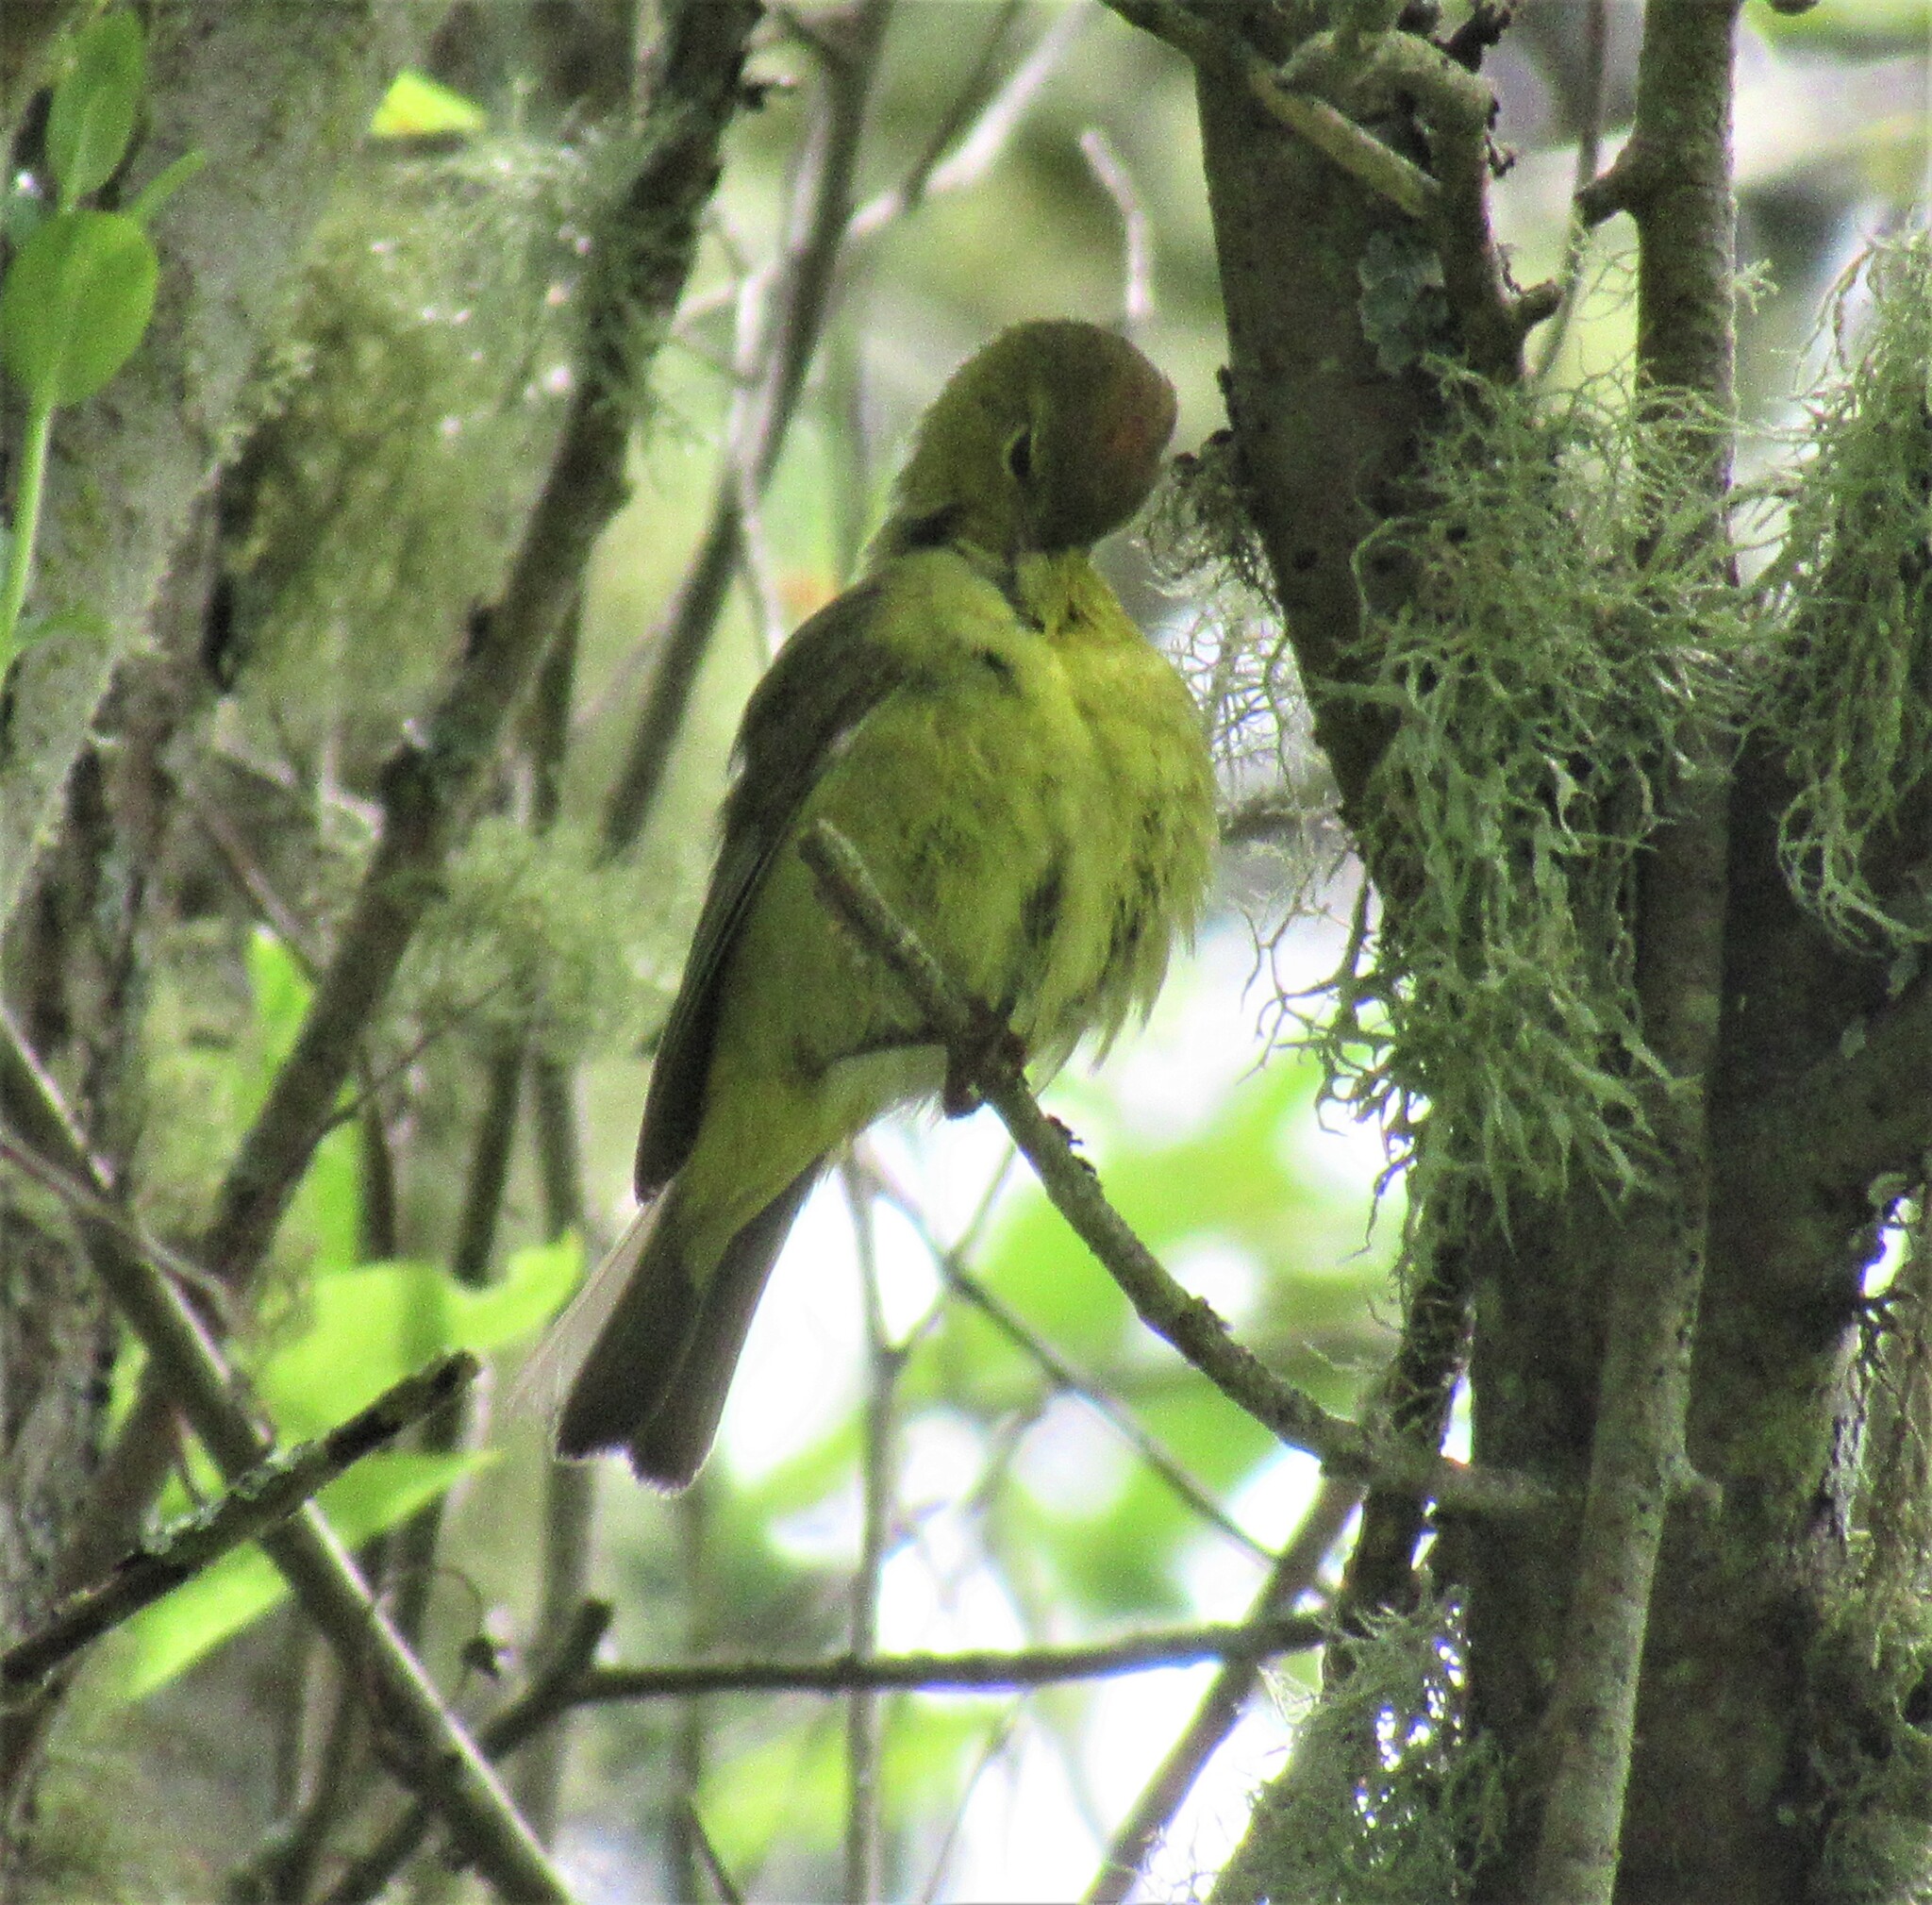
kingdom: Animalia
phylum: Chordata
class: Aves
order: Passeriformes
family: Parulidae
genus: Leiothlypis
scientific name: Leiothlypis celata
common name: Orange-crowned warbler
